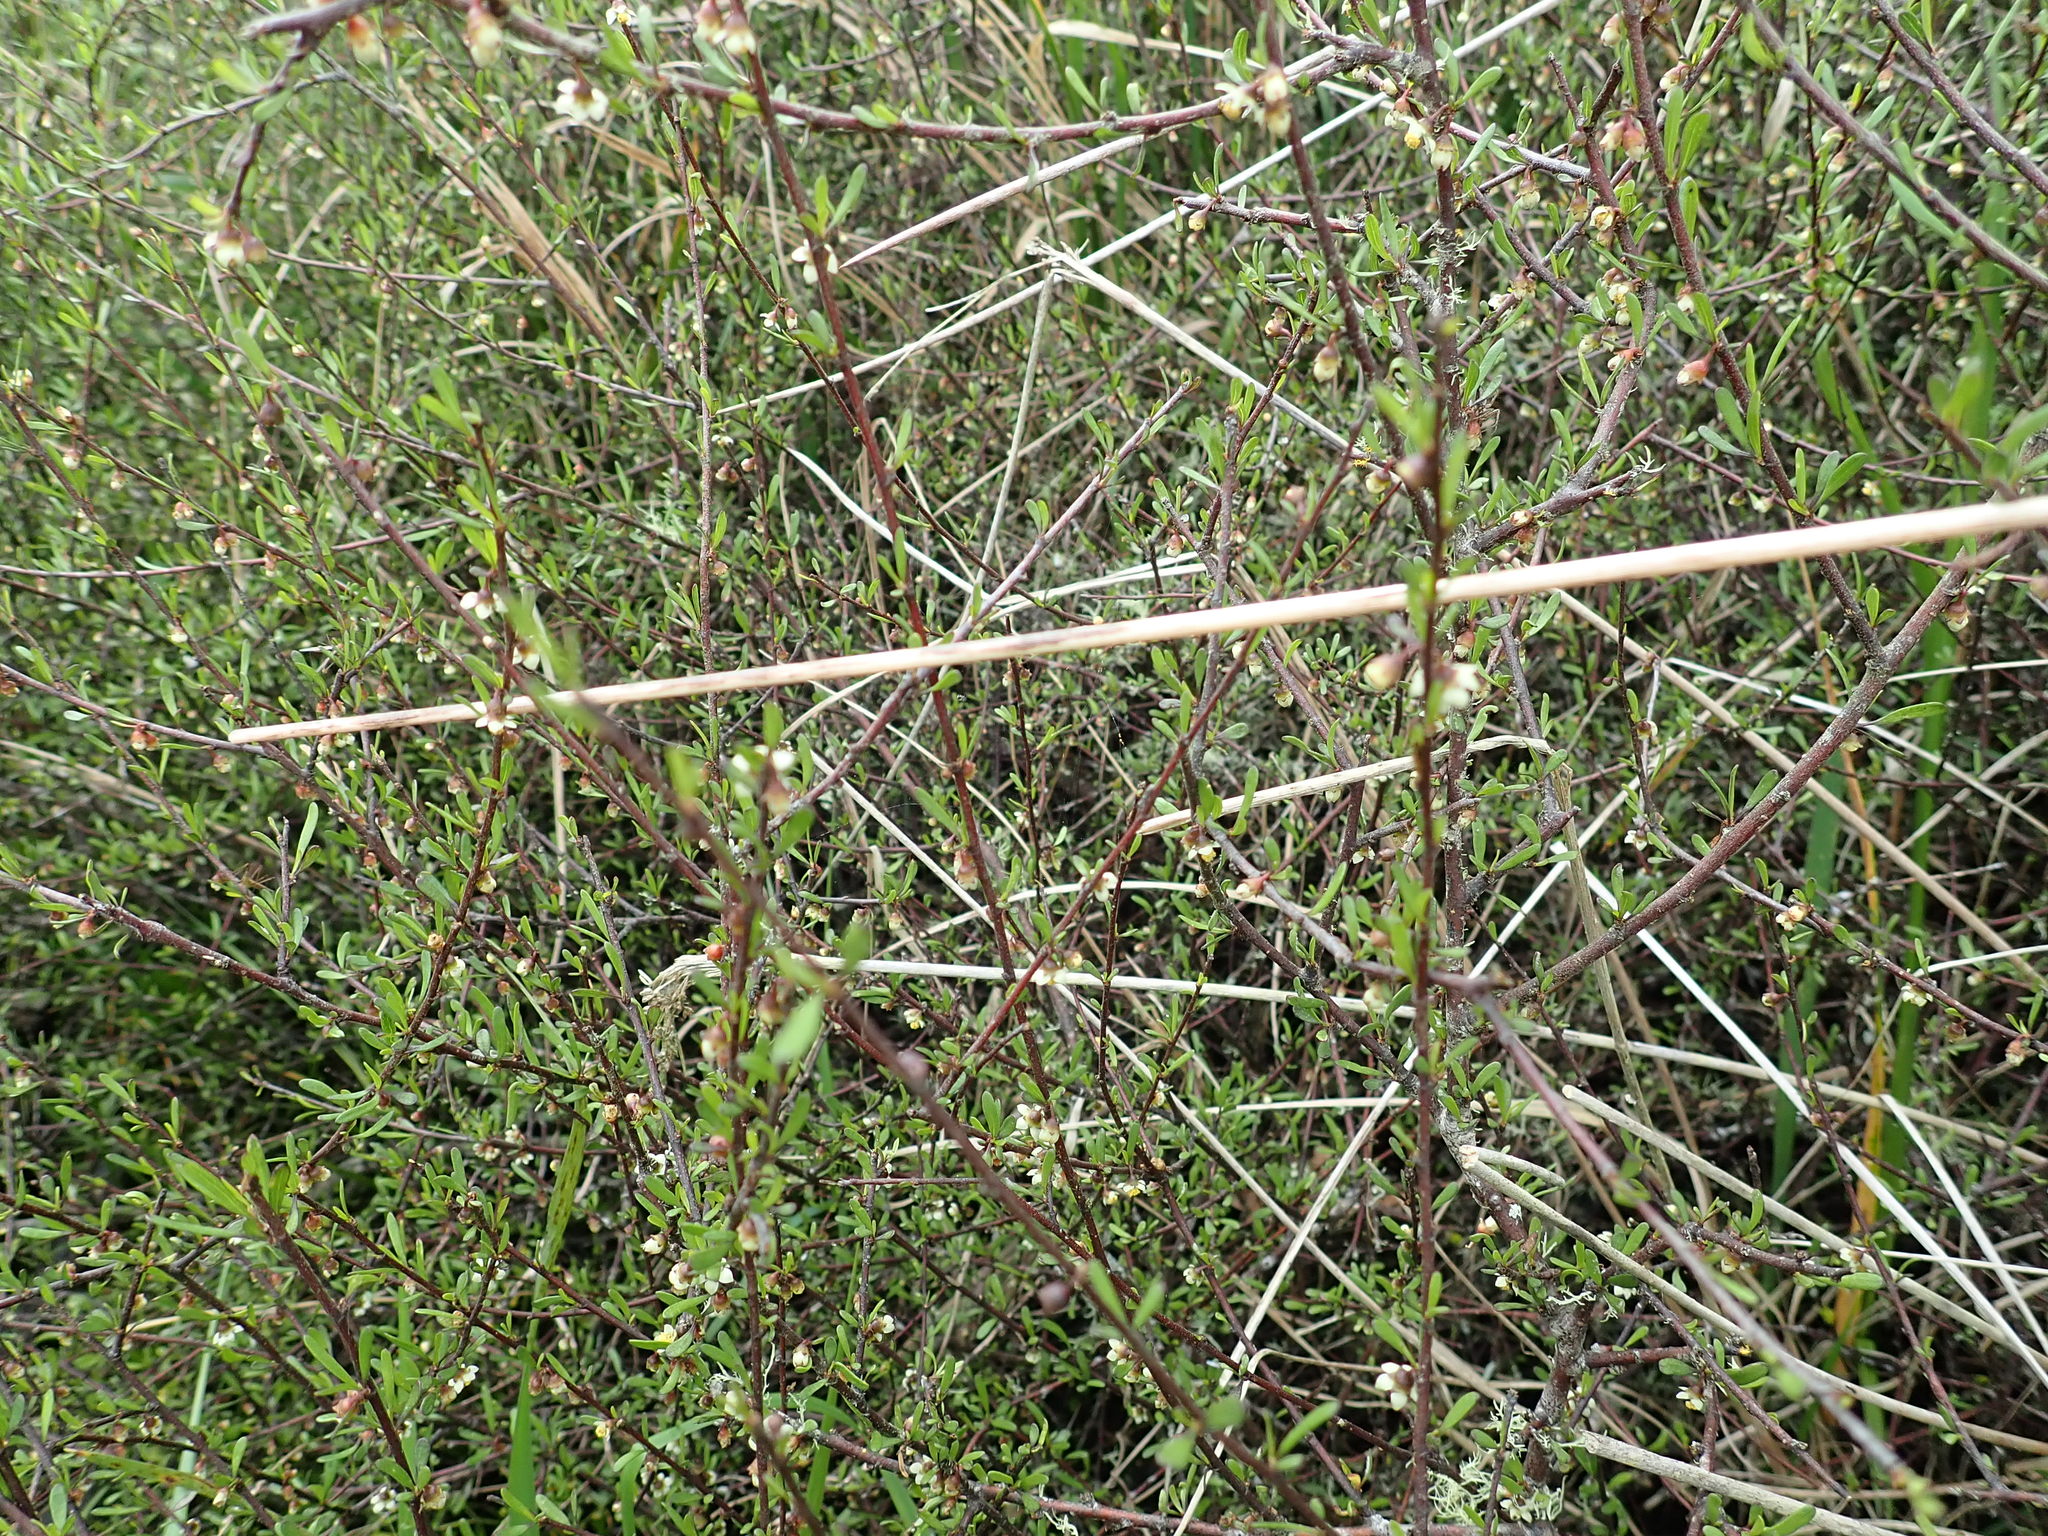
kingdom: Plantae
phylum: Tracheophyta
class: Magnoliopsida
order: Malvales
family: Malvaceae
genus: Plagianthus
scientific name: Plagianthus divaricatus
